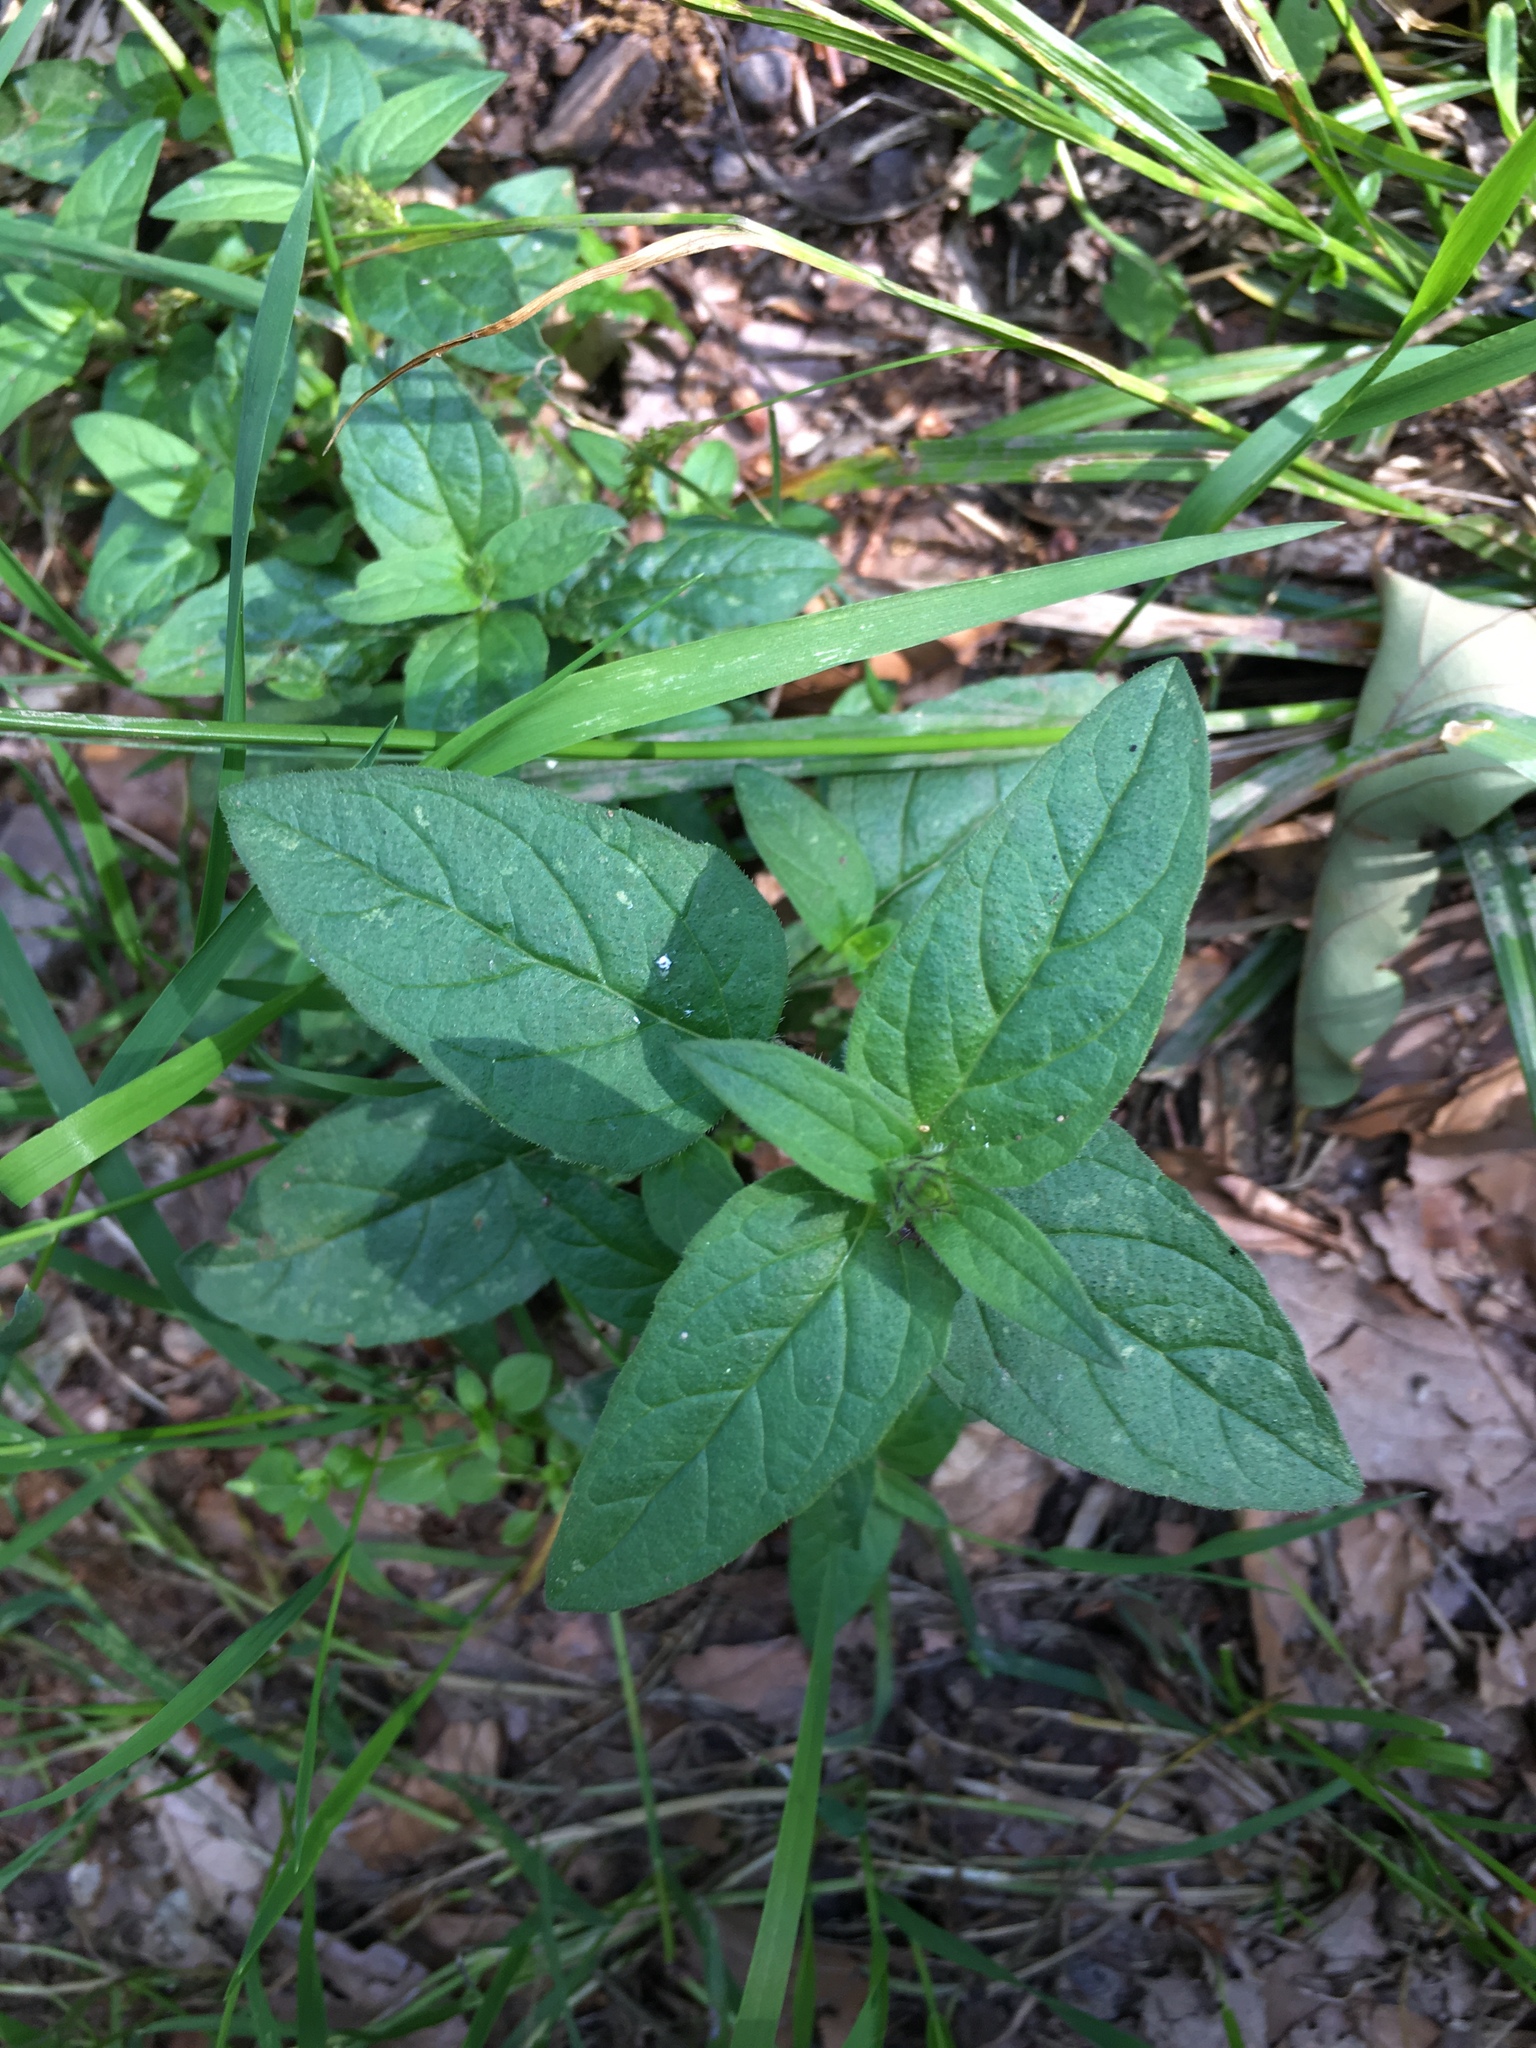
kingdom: Plantae
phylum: Tracheophyta
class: Magnoliopsida
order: Lamiales
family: Lamiaceae
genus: Prunella
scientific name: Prunella vulgaris
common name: Heal-all
